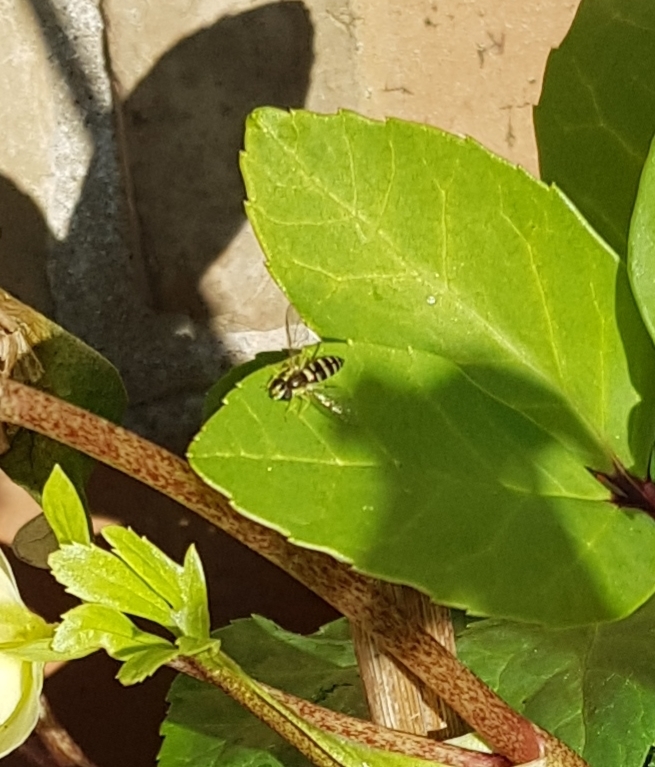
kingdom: Animalia
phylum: Arthropoda
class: Insecta
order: Diptera
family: Syrphidae
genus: Sphaerophoria
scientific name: Sphaerophoria
